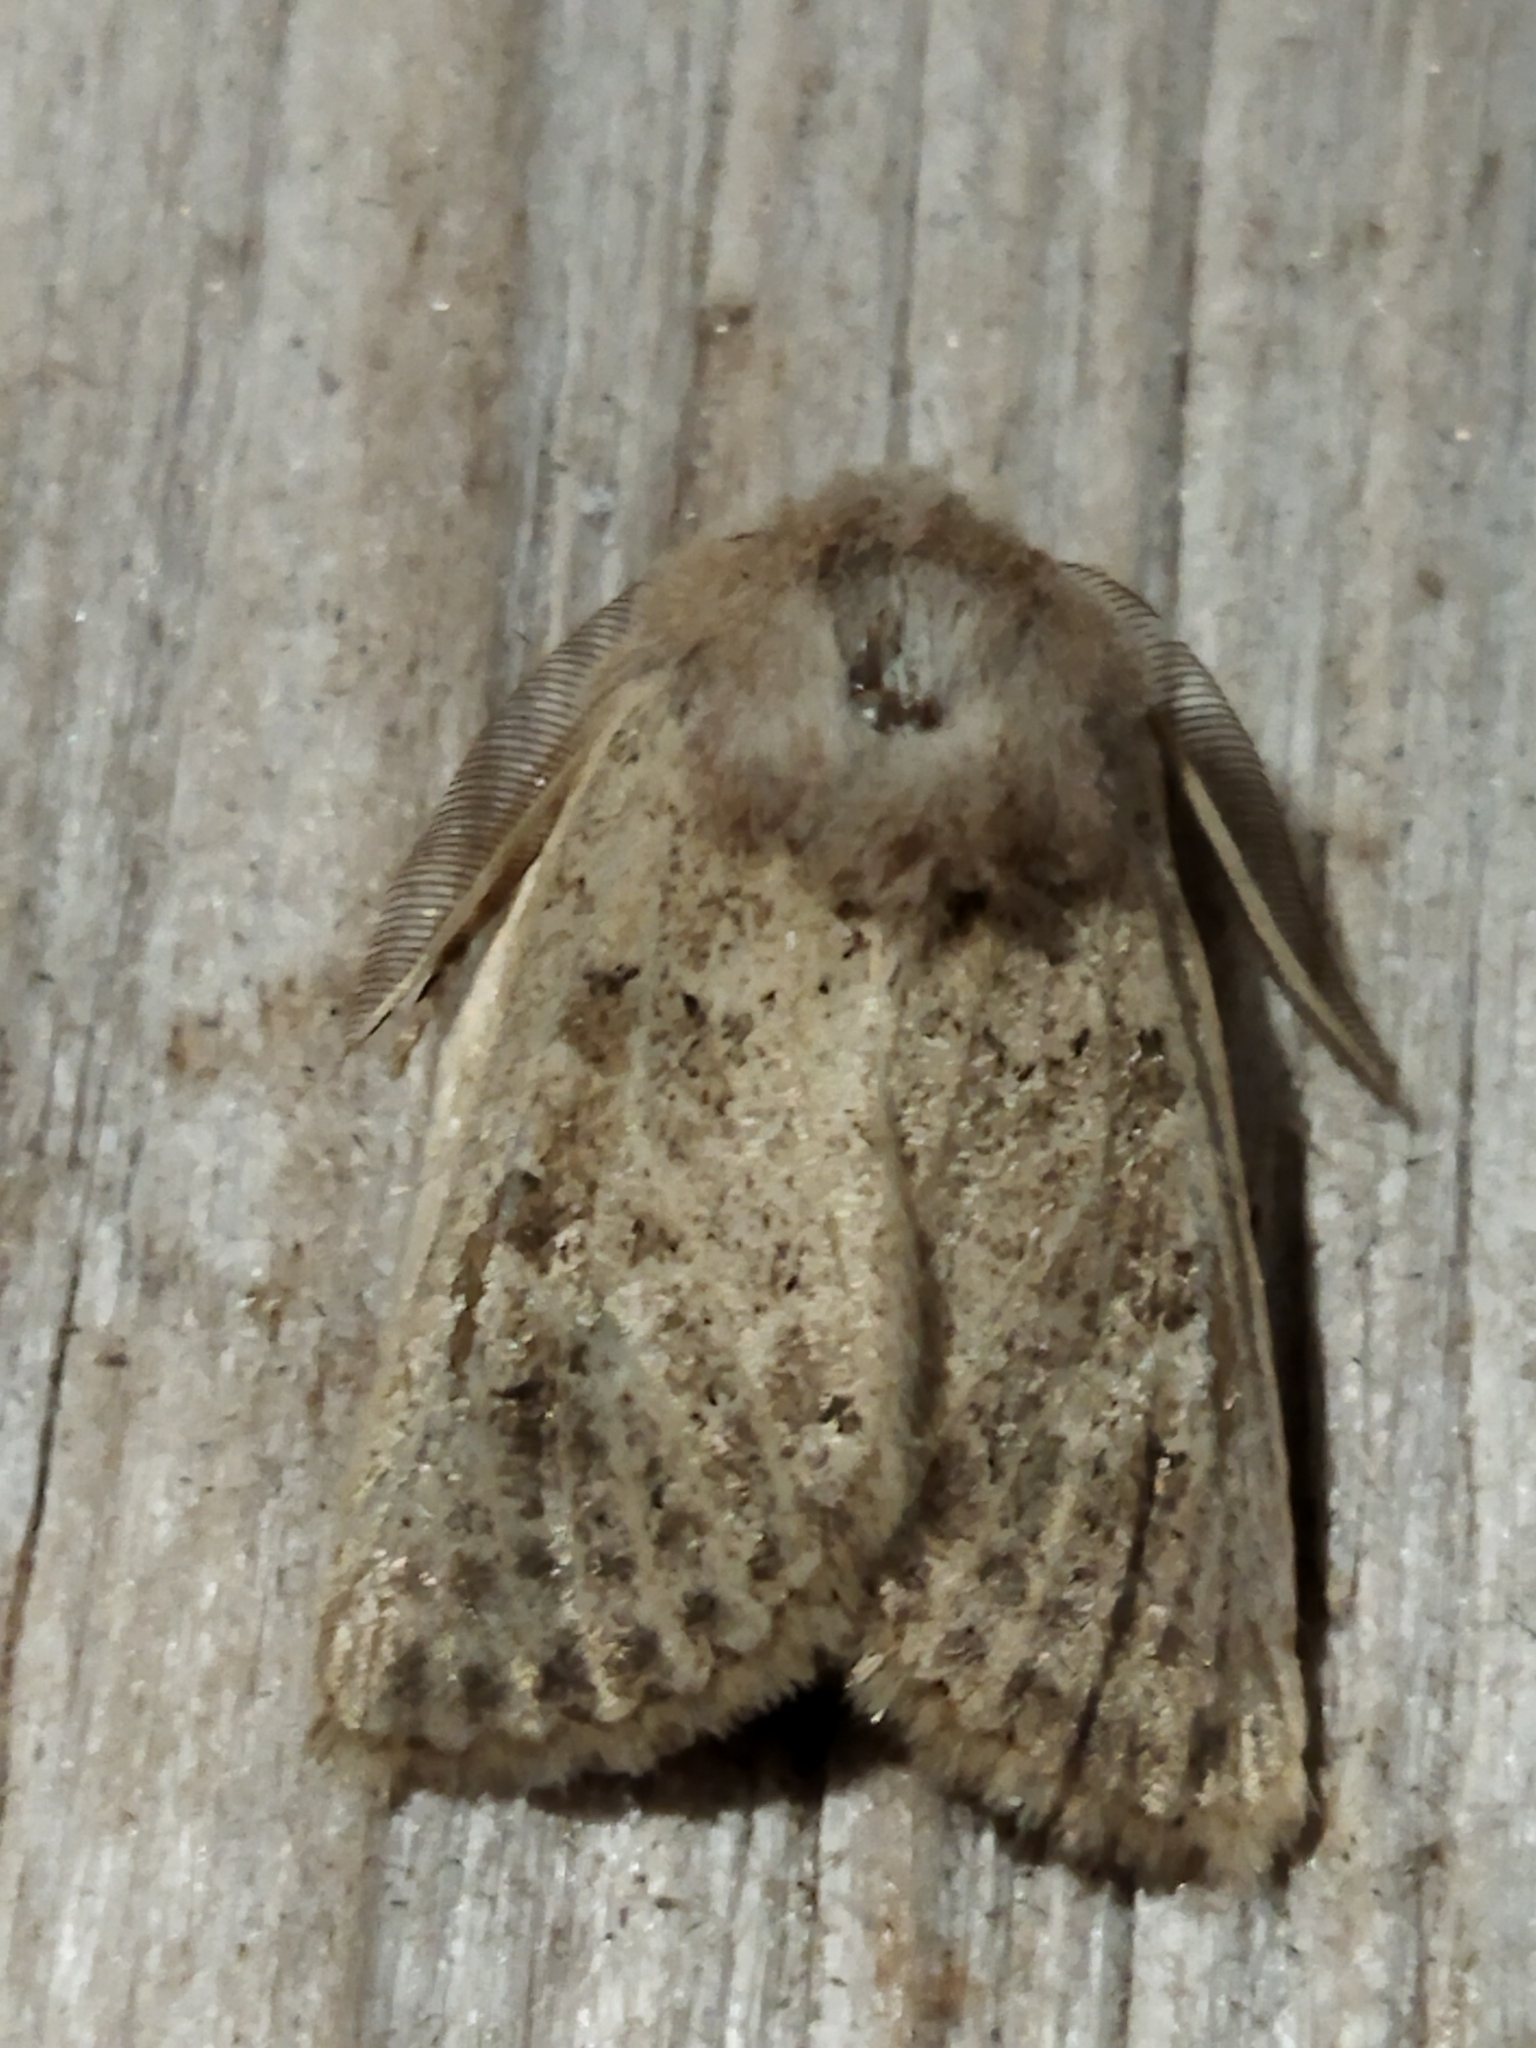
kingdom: Animalia
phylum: Arthropoda
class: Insecta
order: Lepidoptera
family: Noctuidae
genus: Episema
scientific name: Episema lederi
